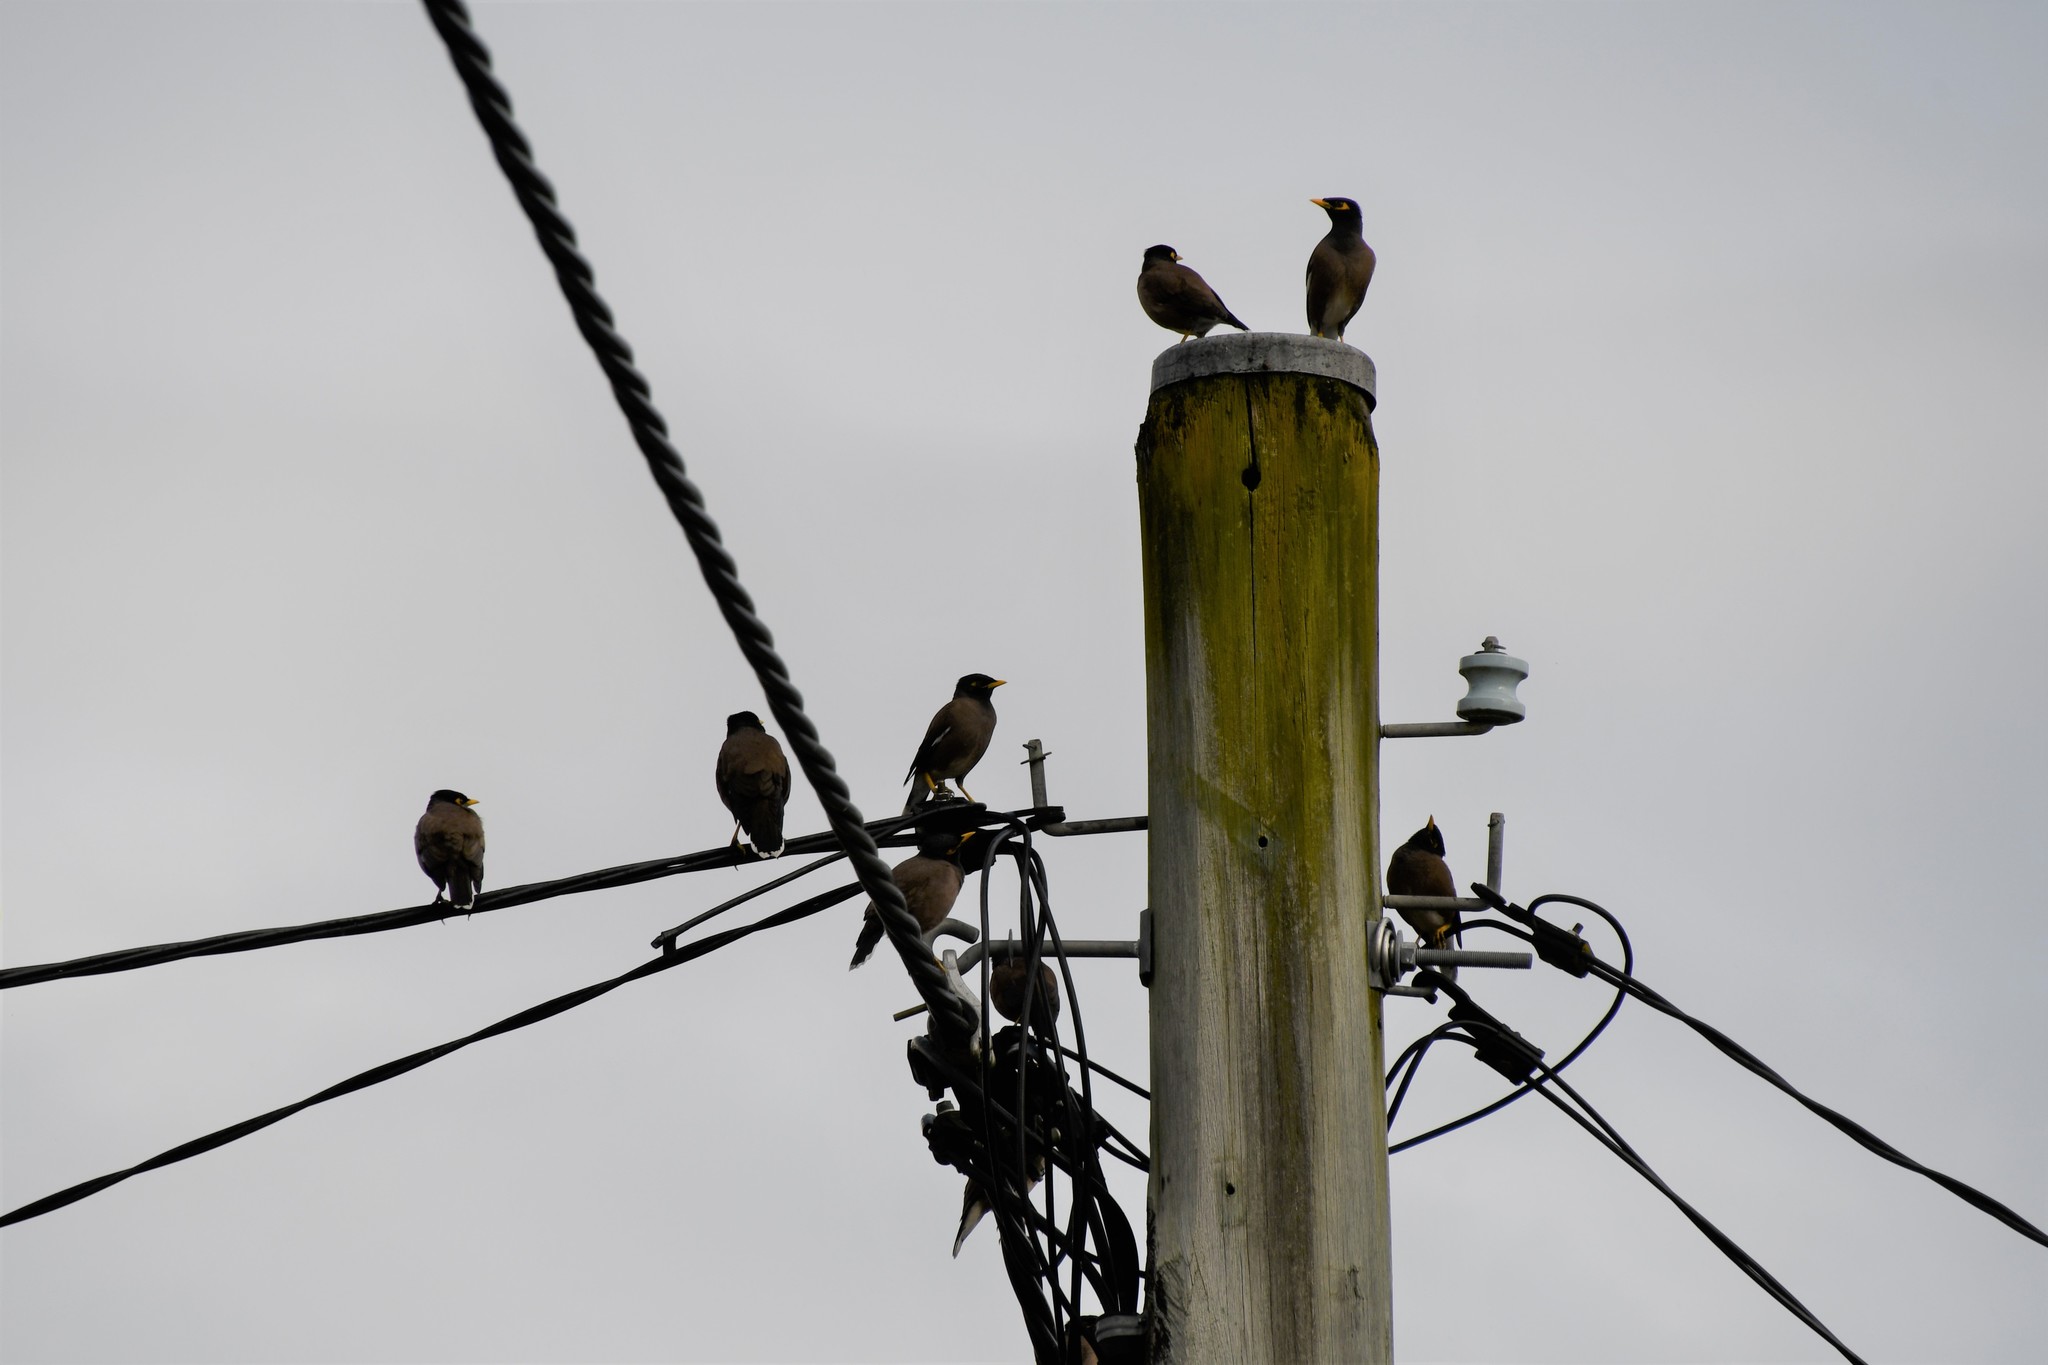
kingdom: Animalia
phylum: Chordata
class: Aves
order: Passeriformes
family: Sturnidae
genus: Acridotheres
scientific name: Acridotheres tristis
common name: Common myna
